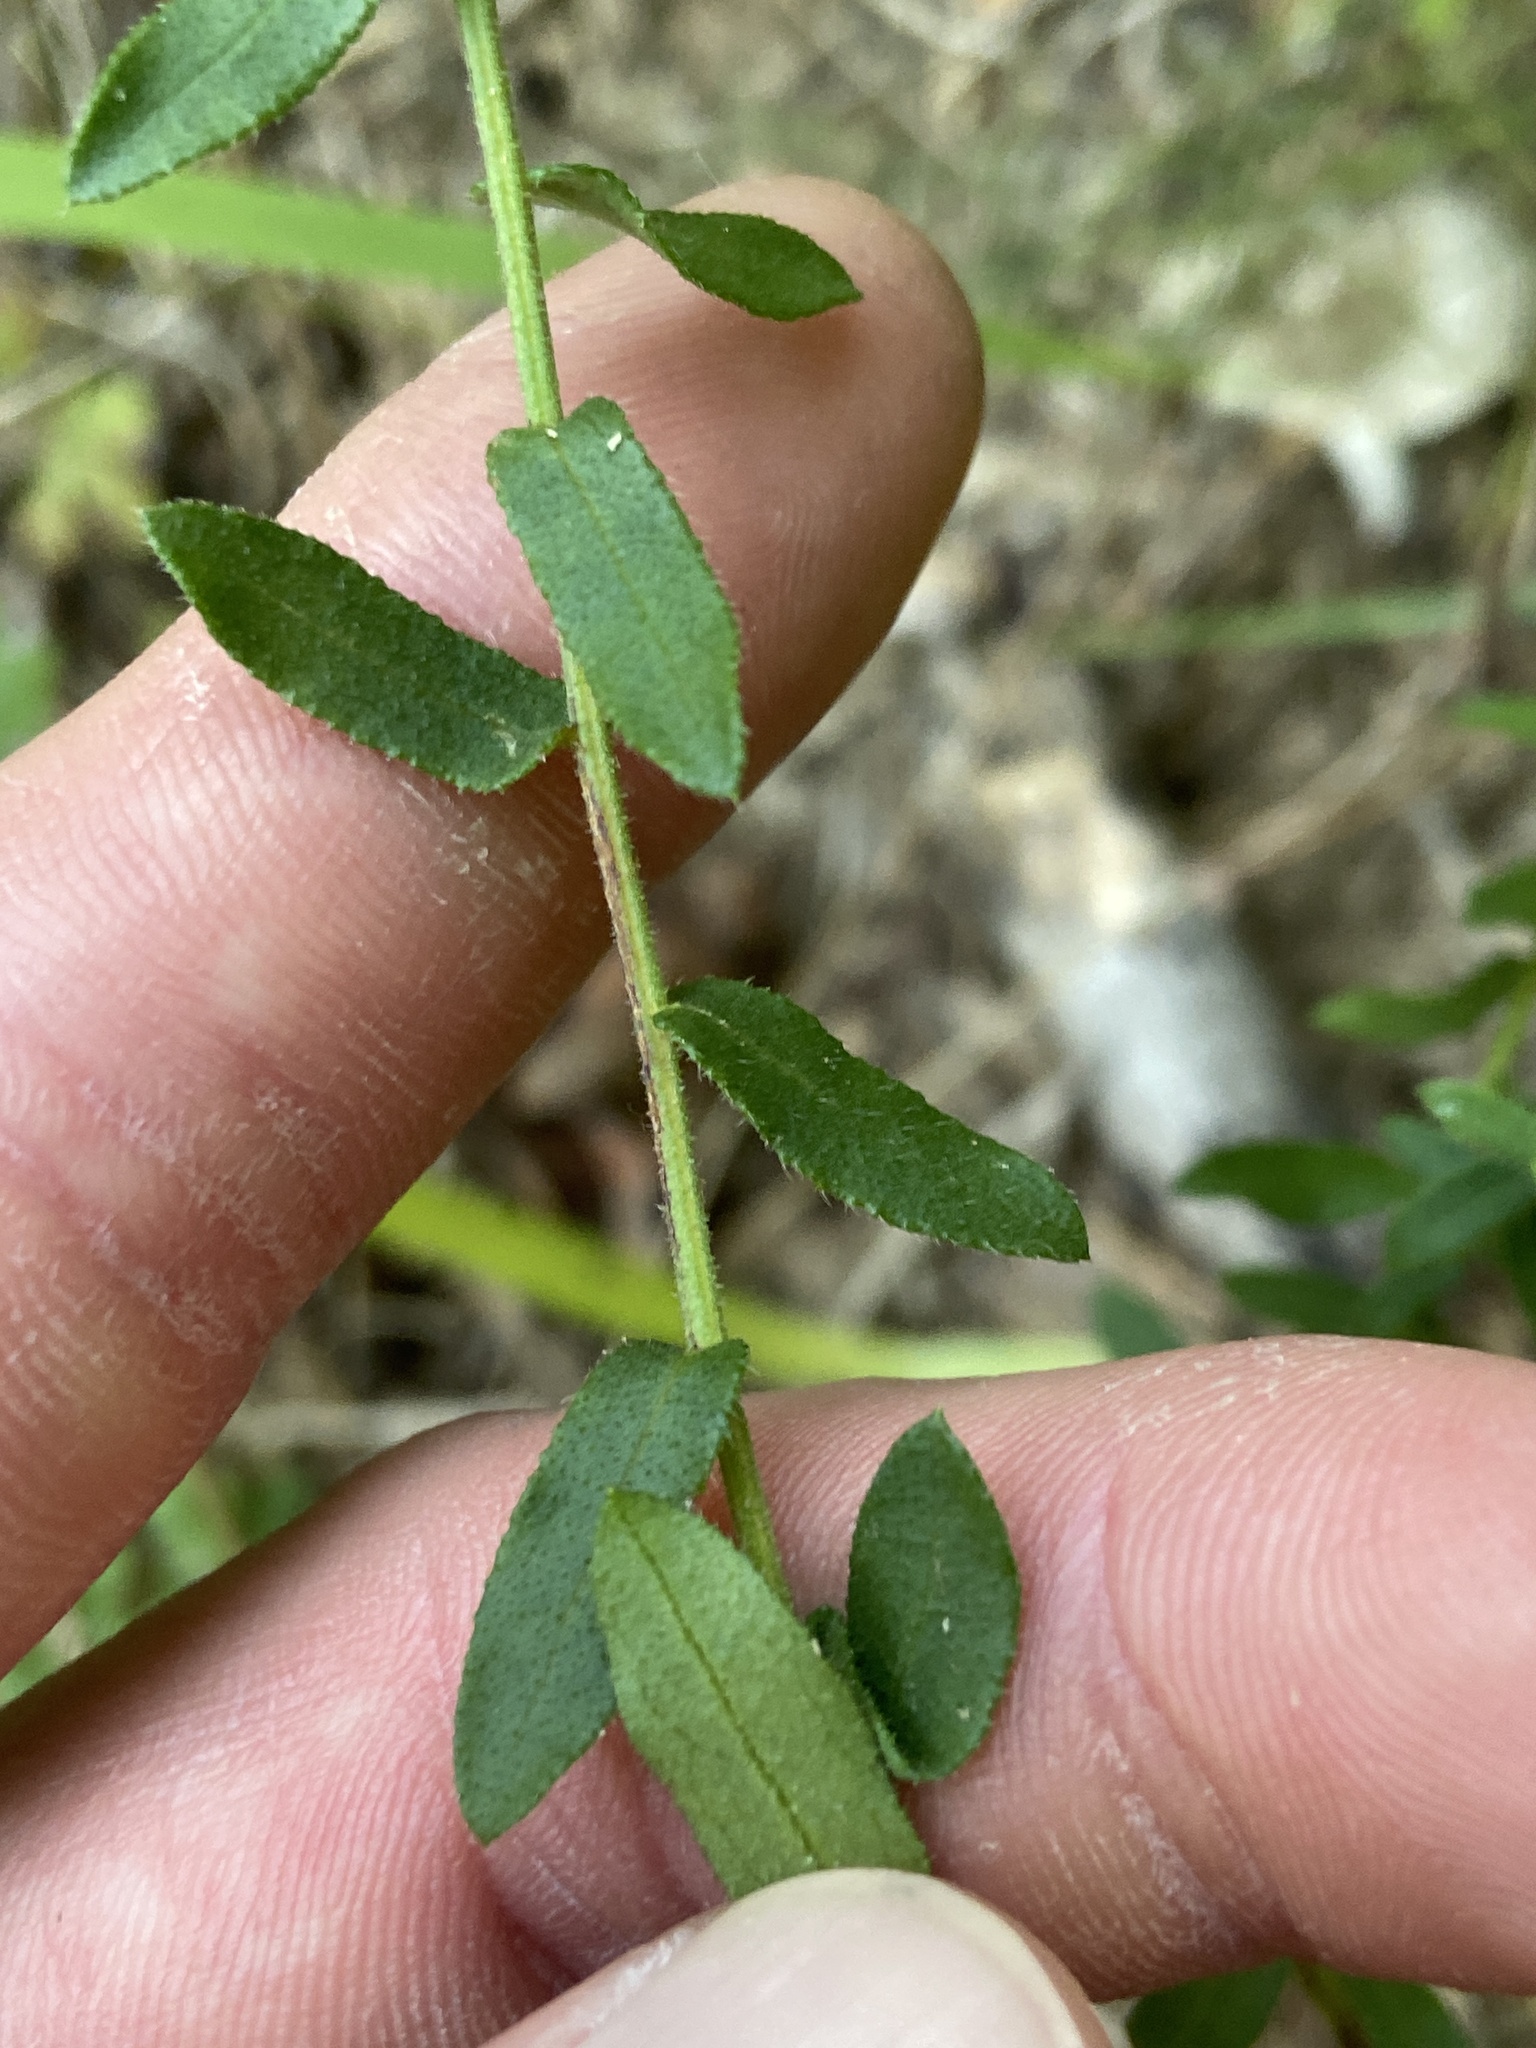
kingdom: Plantae
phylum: Tracheophyta
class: Magnoliopsida
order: Asterales
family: Asteraceae
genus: Symphyotrichum
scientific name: Symphyotrichum grandiflorum
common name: Big-head aster
